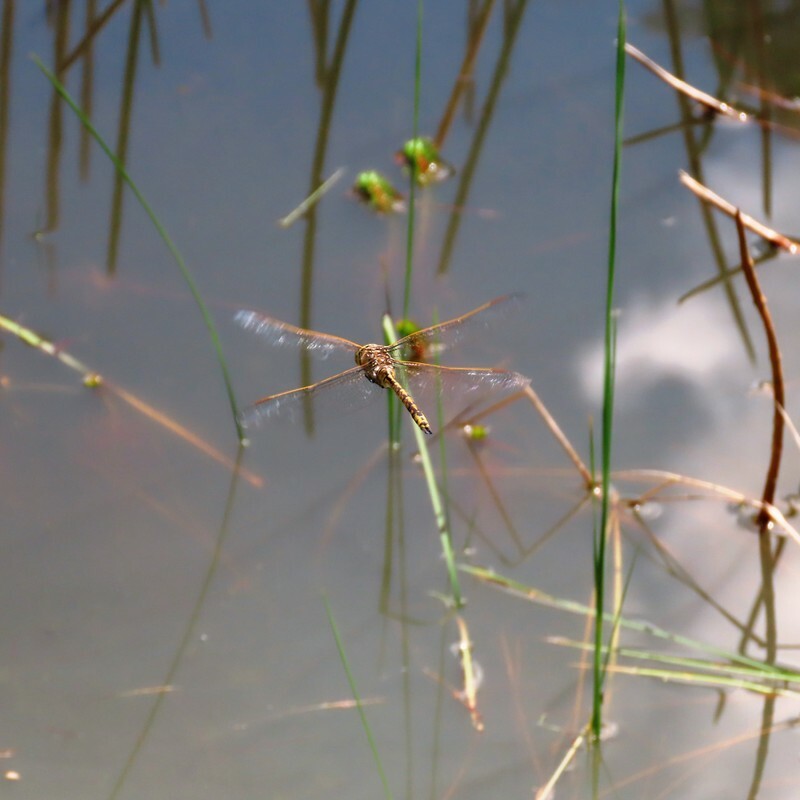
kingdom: Animalia
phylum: Arthropoda
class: Insecta
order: Odonata
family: Aeshnidae
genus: Anax
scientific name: Anax papuensis
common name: Australian emperor
